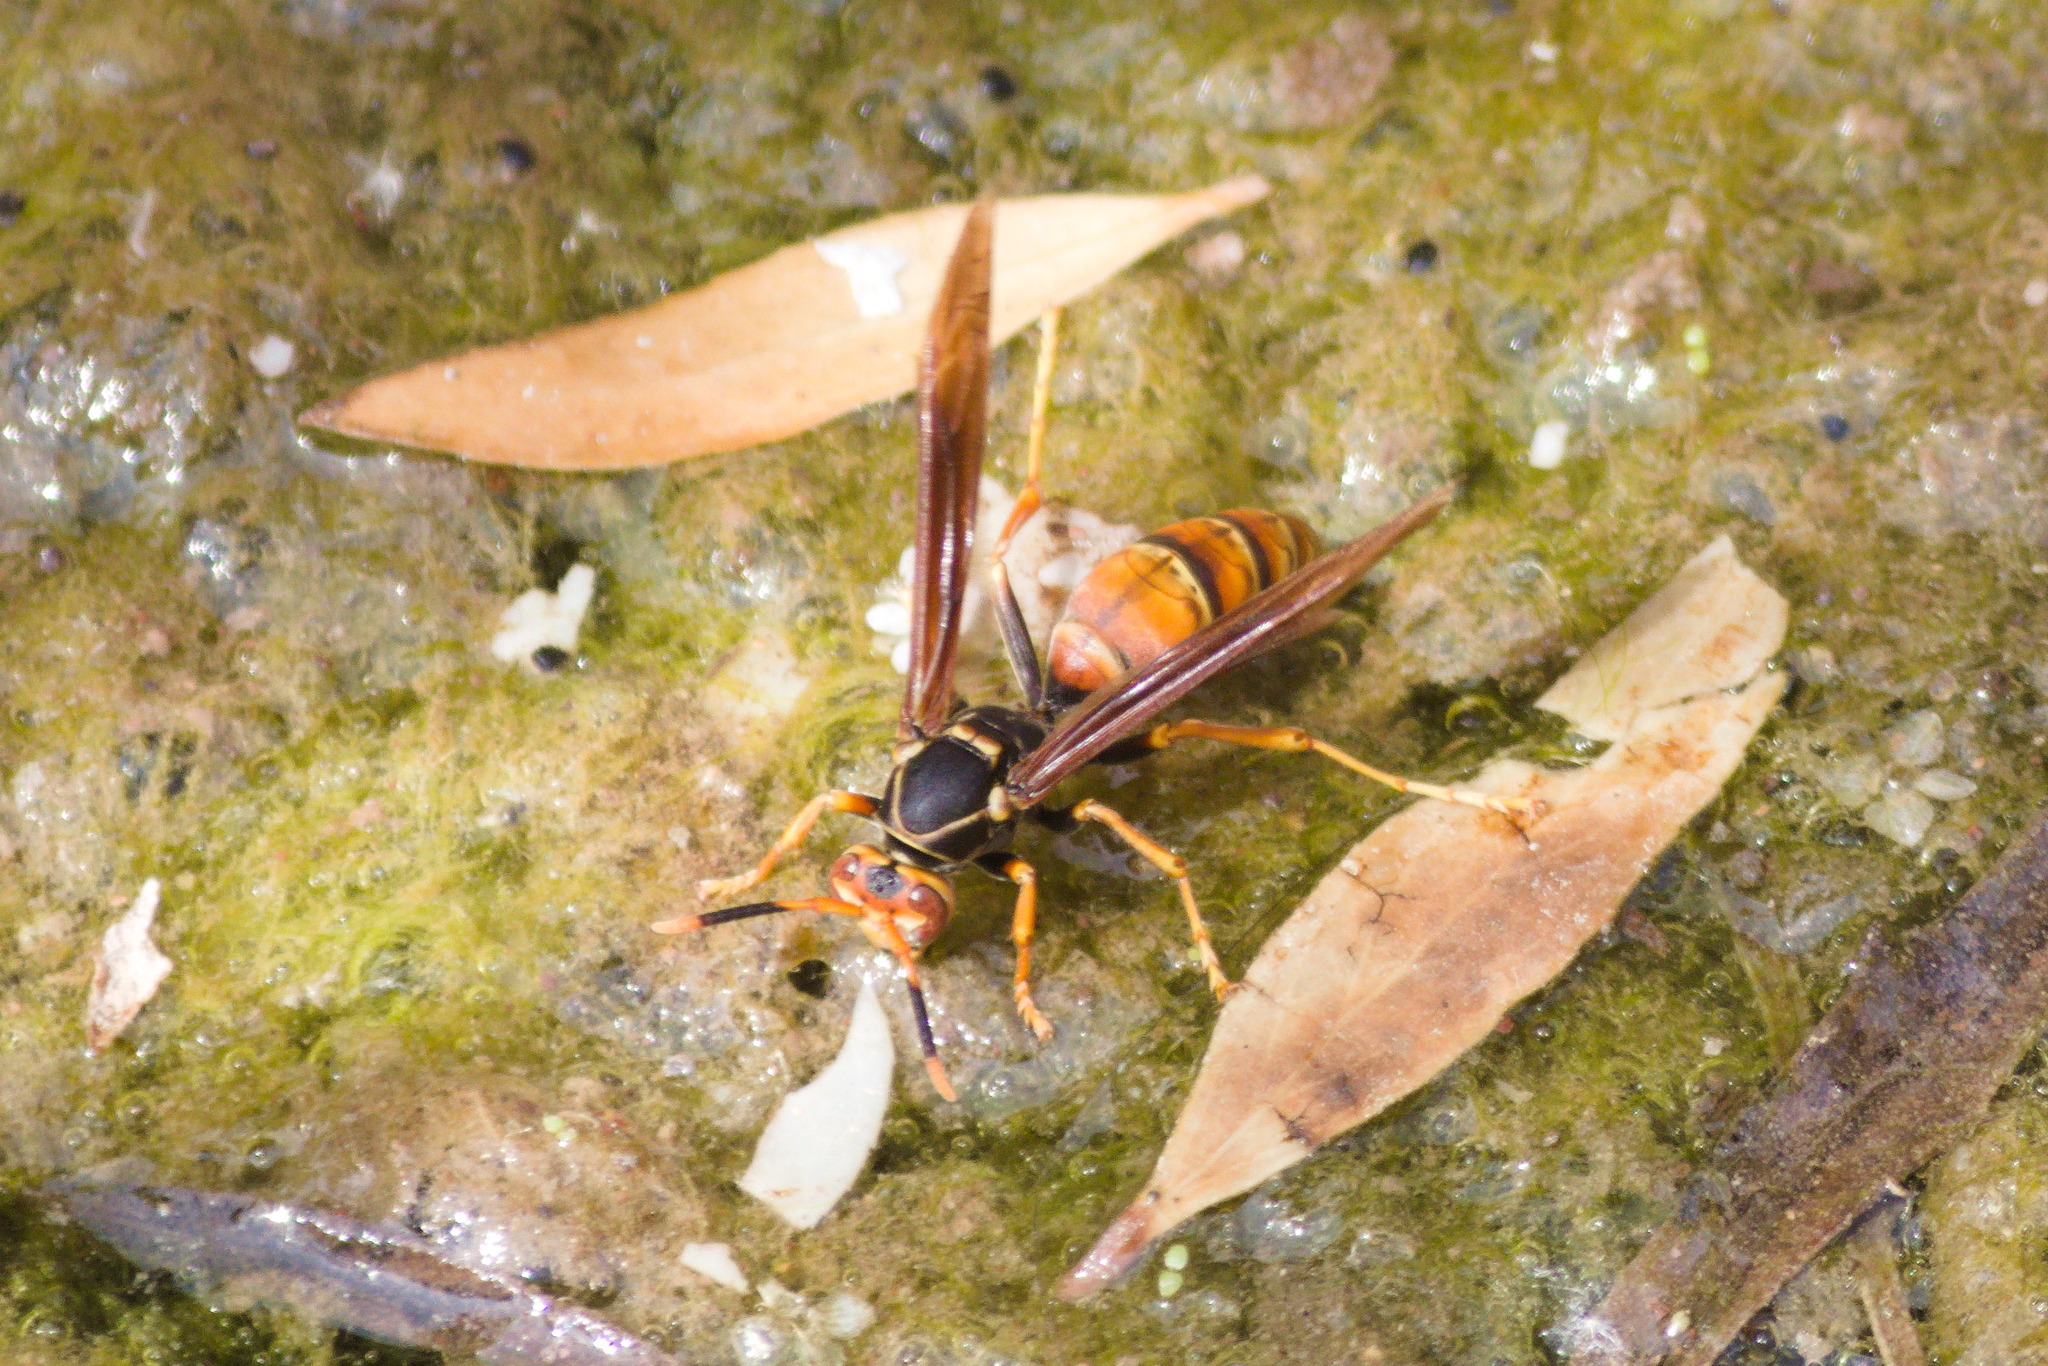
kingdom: Animalia
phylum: Arthropoda
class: Insecta
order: Hymenoptera
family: Eumenidae
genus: Polistes
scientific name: Polistes buyssoni
